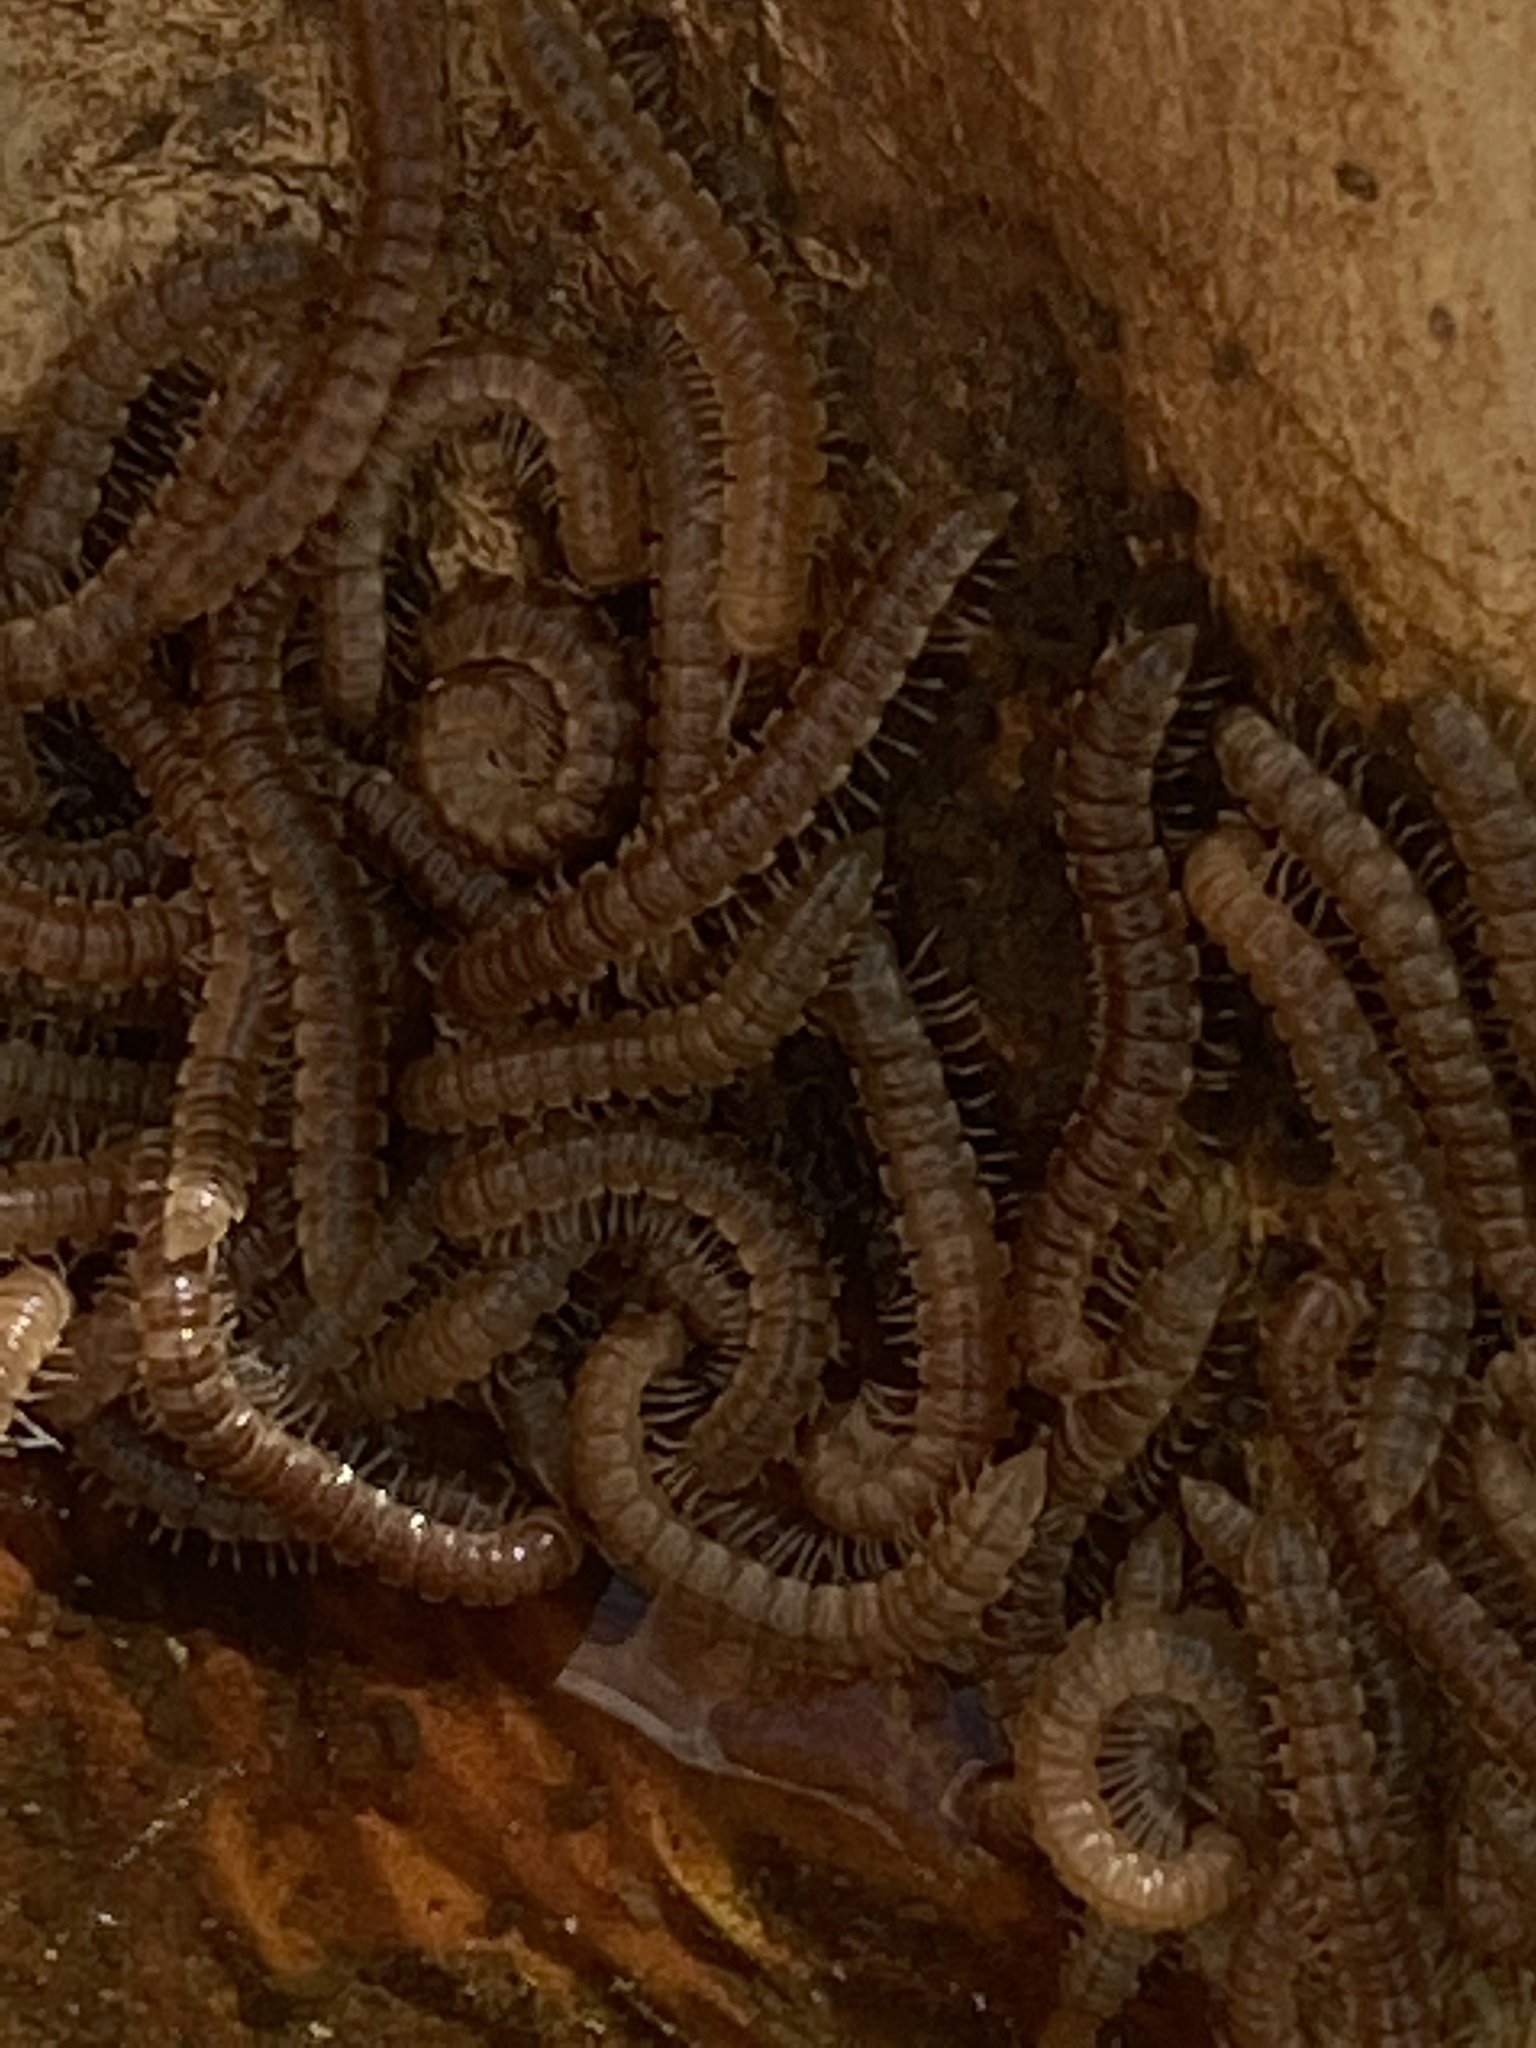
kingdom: Animalia
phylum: Arthropoda
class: Diplopoda
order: Polydesmida
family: Paradoxosomatidae
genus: Oxidus
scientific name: Oxidus gracilis
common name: Greenhouse millipede
